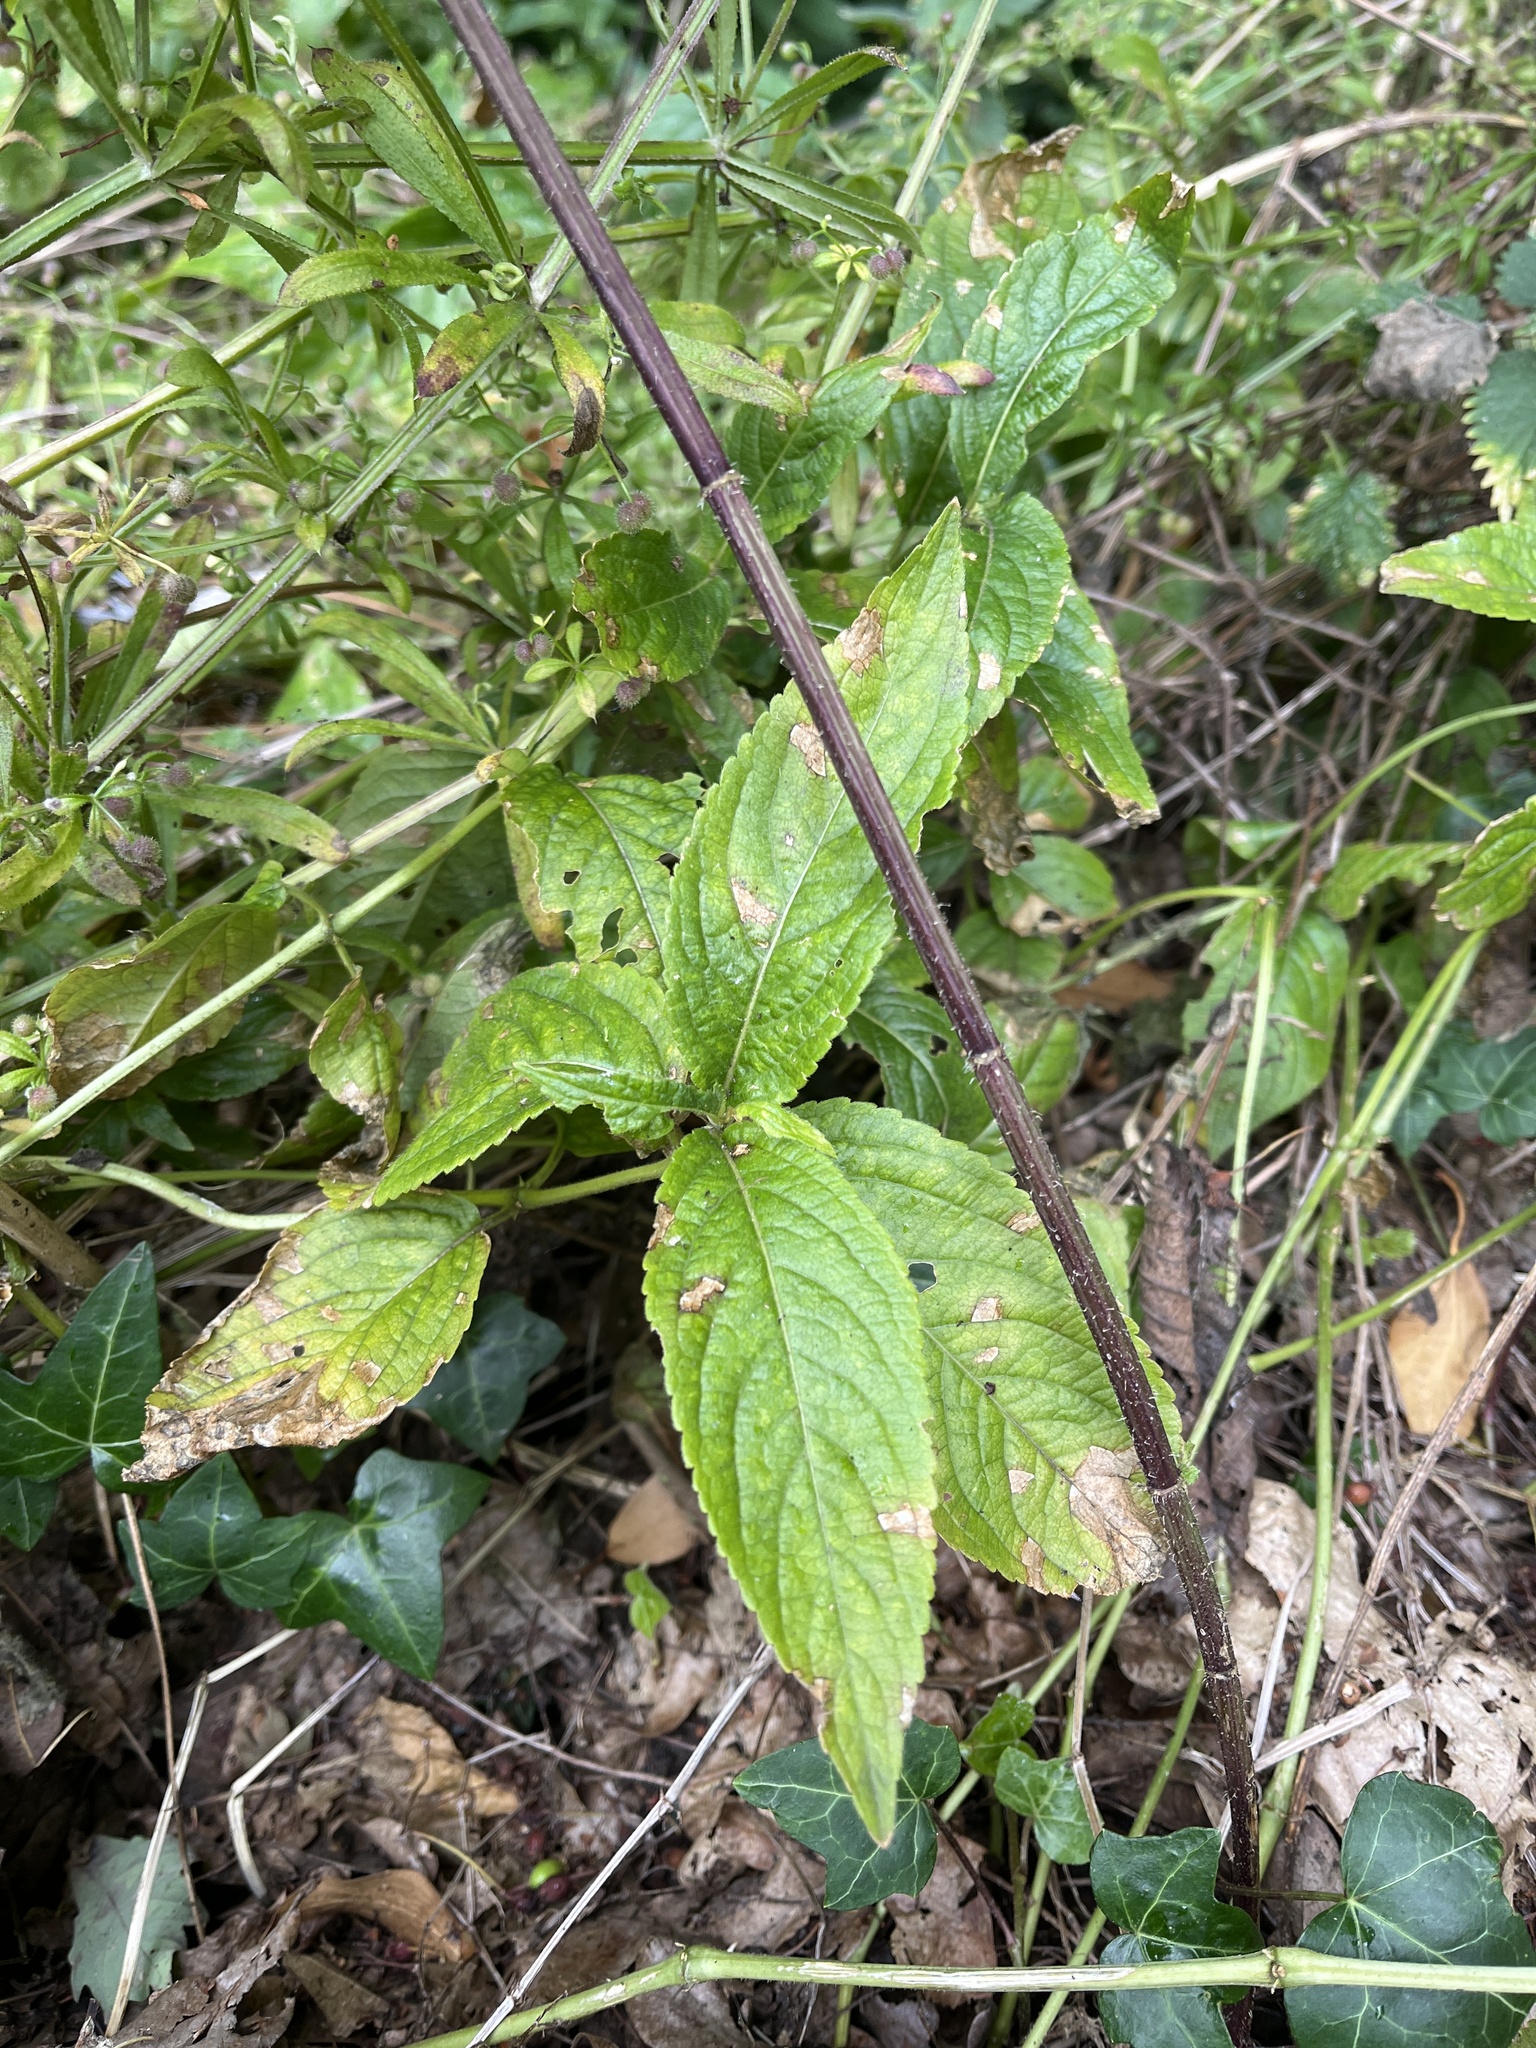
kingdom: Plantae
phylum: Tracheophyta
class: Magnoliopsida
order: Malpighiales
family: Euphorbiaceae
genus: Mercurialis
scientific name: Mercurialis perennis
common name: Dog mercury
